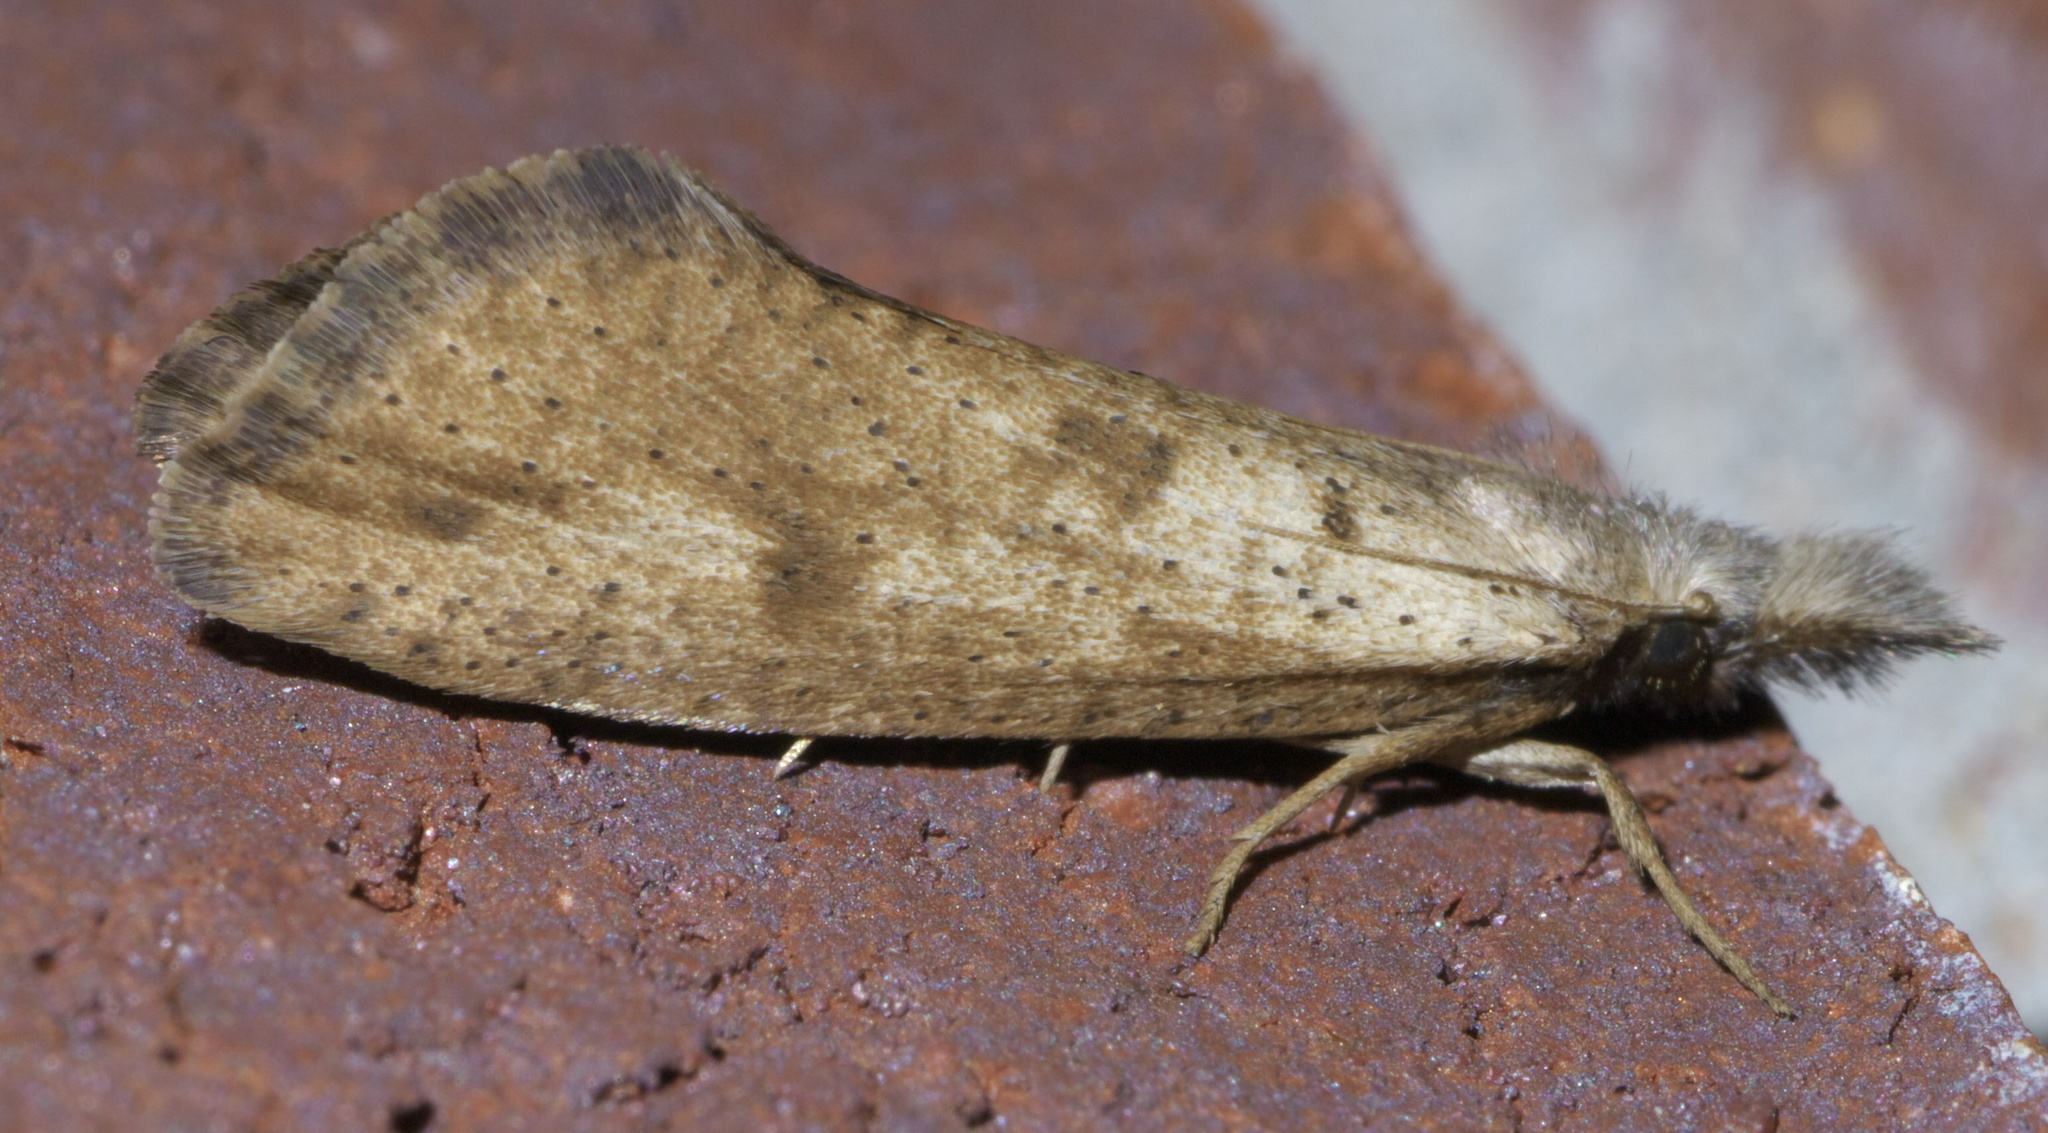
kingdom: Animalia
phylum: Arthropoda
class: Insecta
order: Lepidoptera
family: Tineidae
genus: Acrolophus
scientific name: Acrolophus mortipennella
